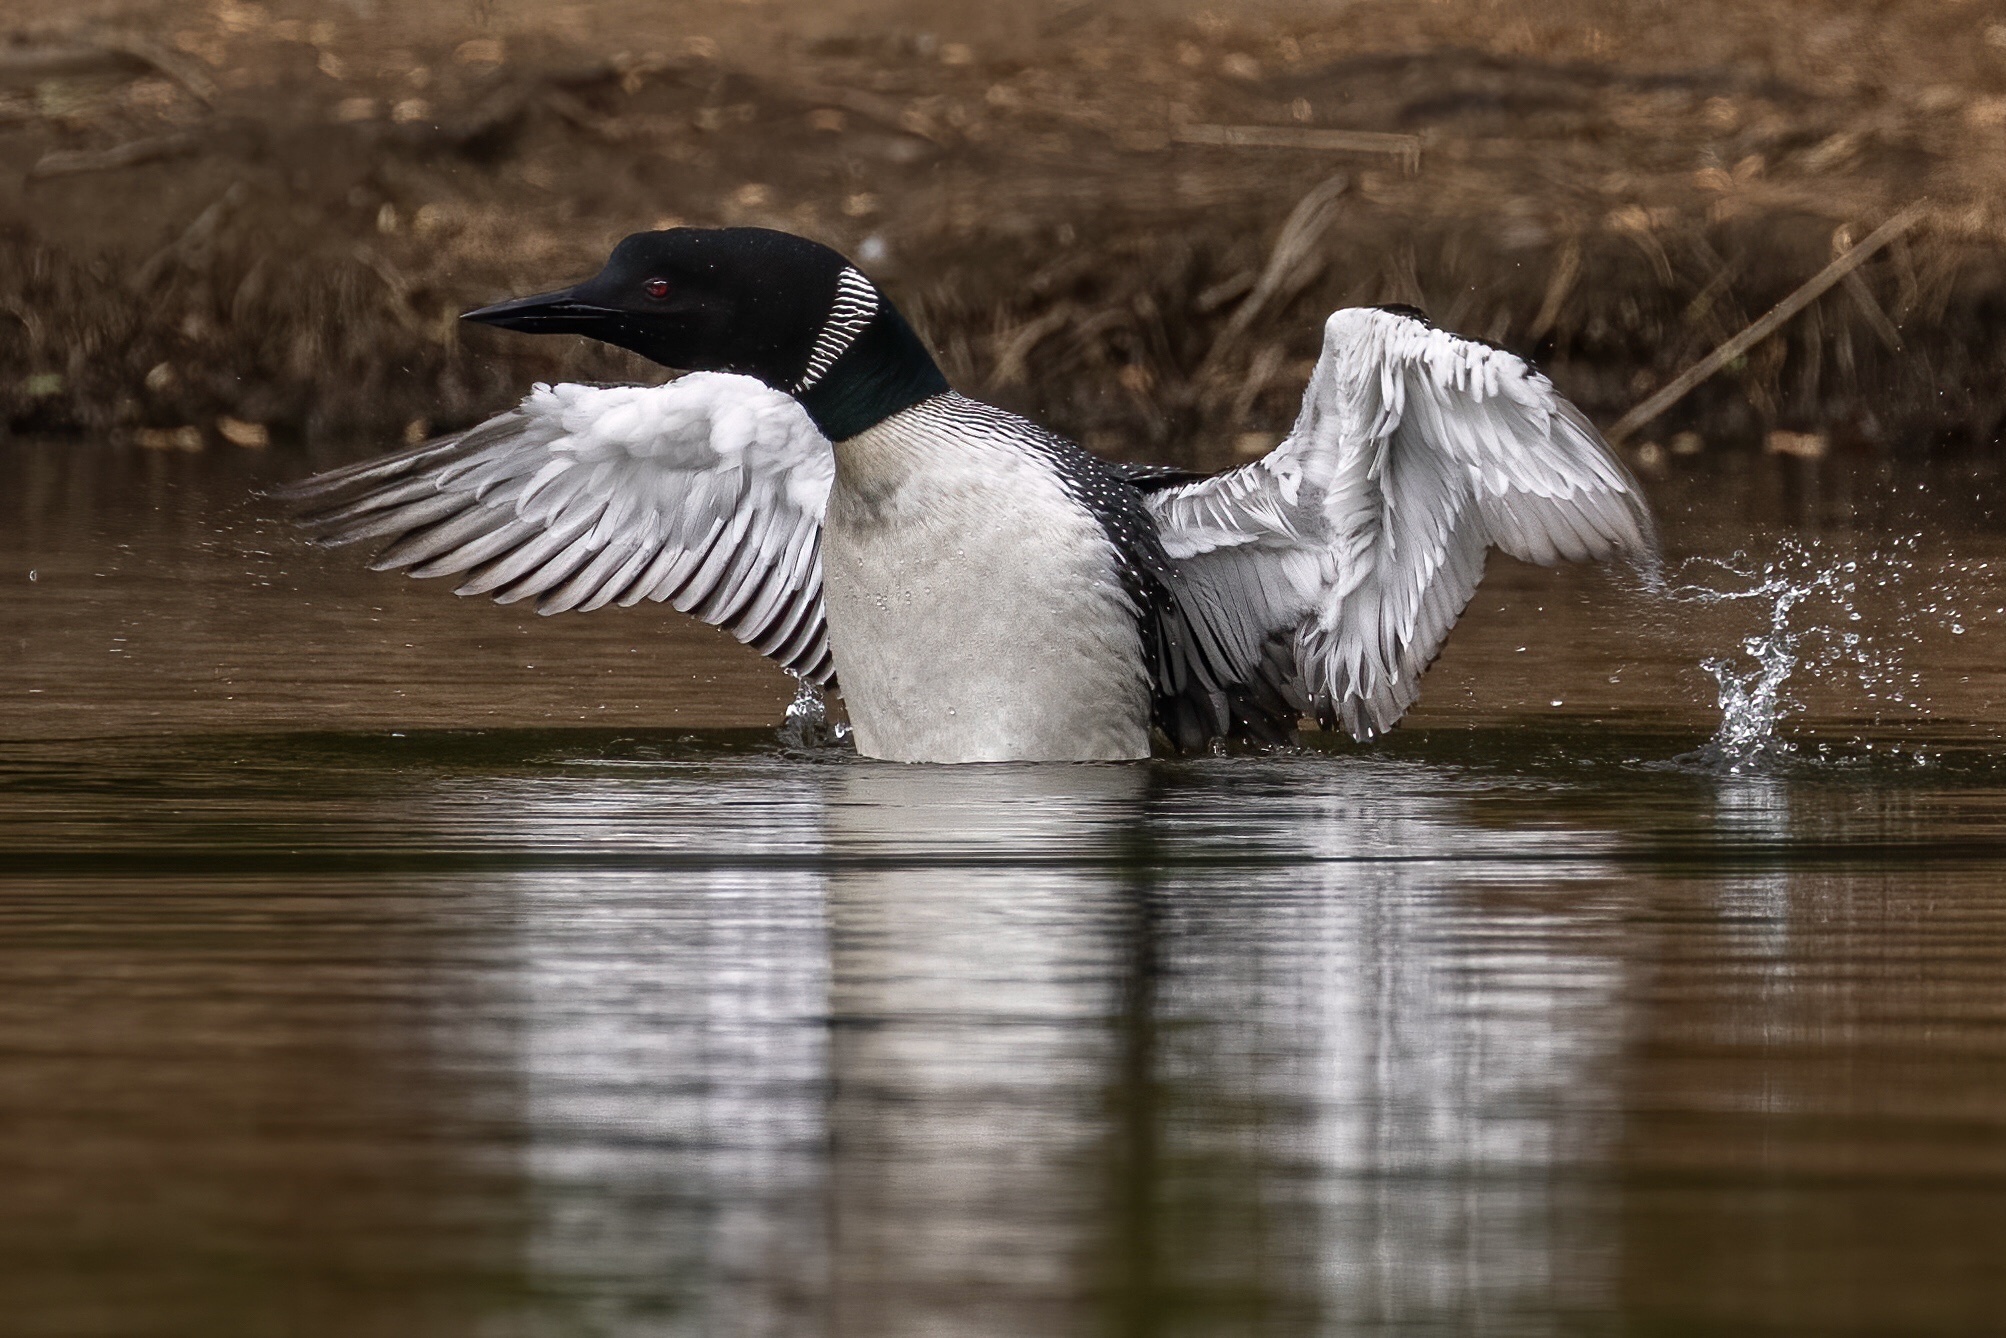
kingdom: Animalia
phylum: Chordata
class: Aves
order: Gaviiformes
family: Gaviidae
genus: Gavia
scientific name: Gavia immer
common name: Common loon
